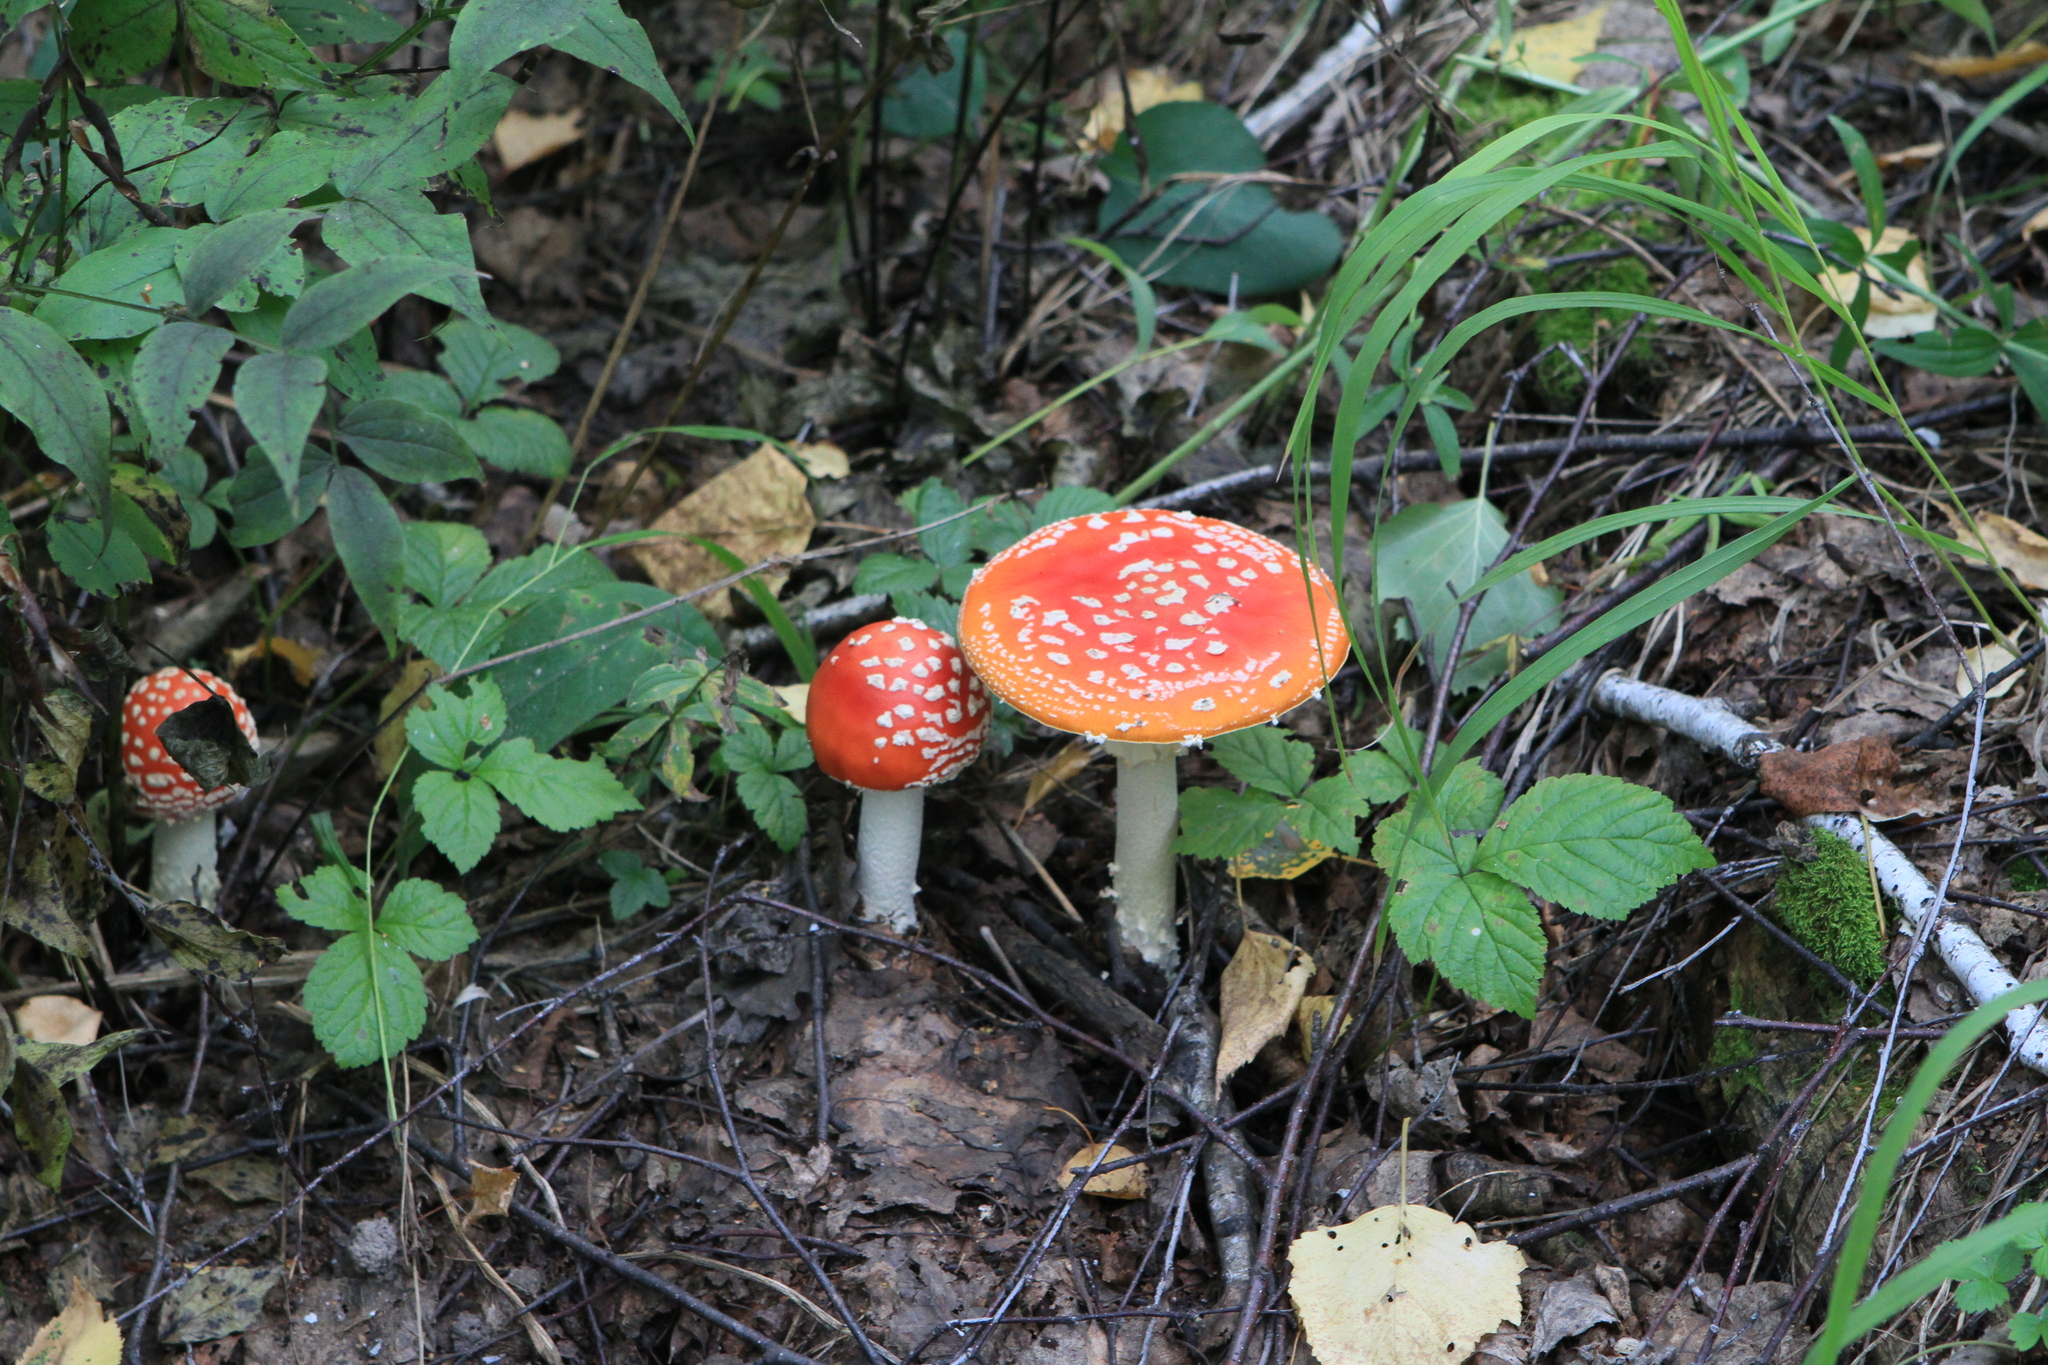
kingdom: Fungi
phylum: Basidiomycota
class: Agaricomycetes
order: Agaricales
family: Amanitaceae
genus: Amanita
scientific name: Amanita muscaria
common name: Fly agaric
